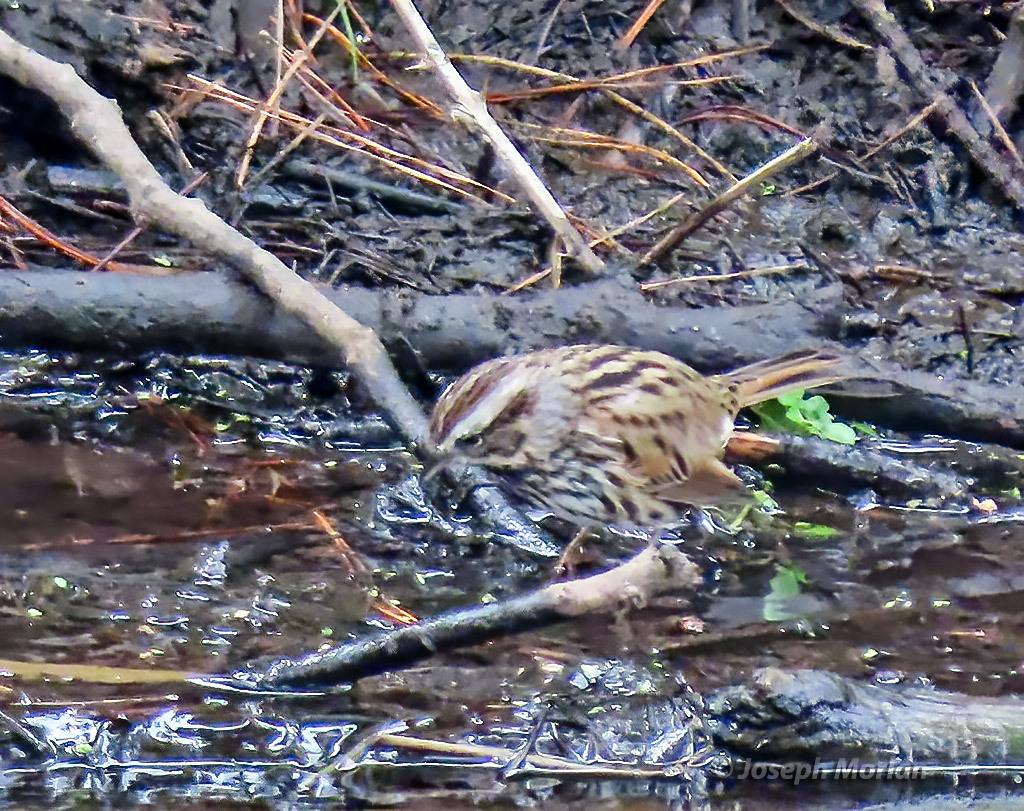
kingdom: Animalia
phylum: Chordata
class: Aves
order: Passeriformes
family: Passerellidae
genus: Melospiza
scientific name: Melospiza melodia
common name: Song sparrow
